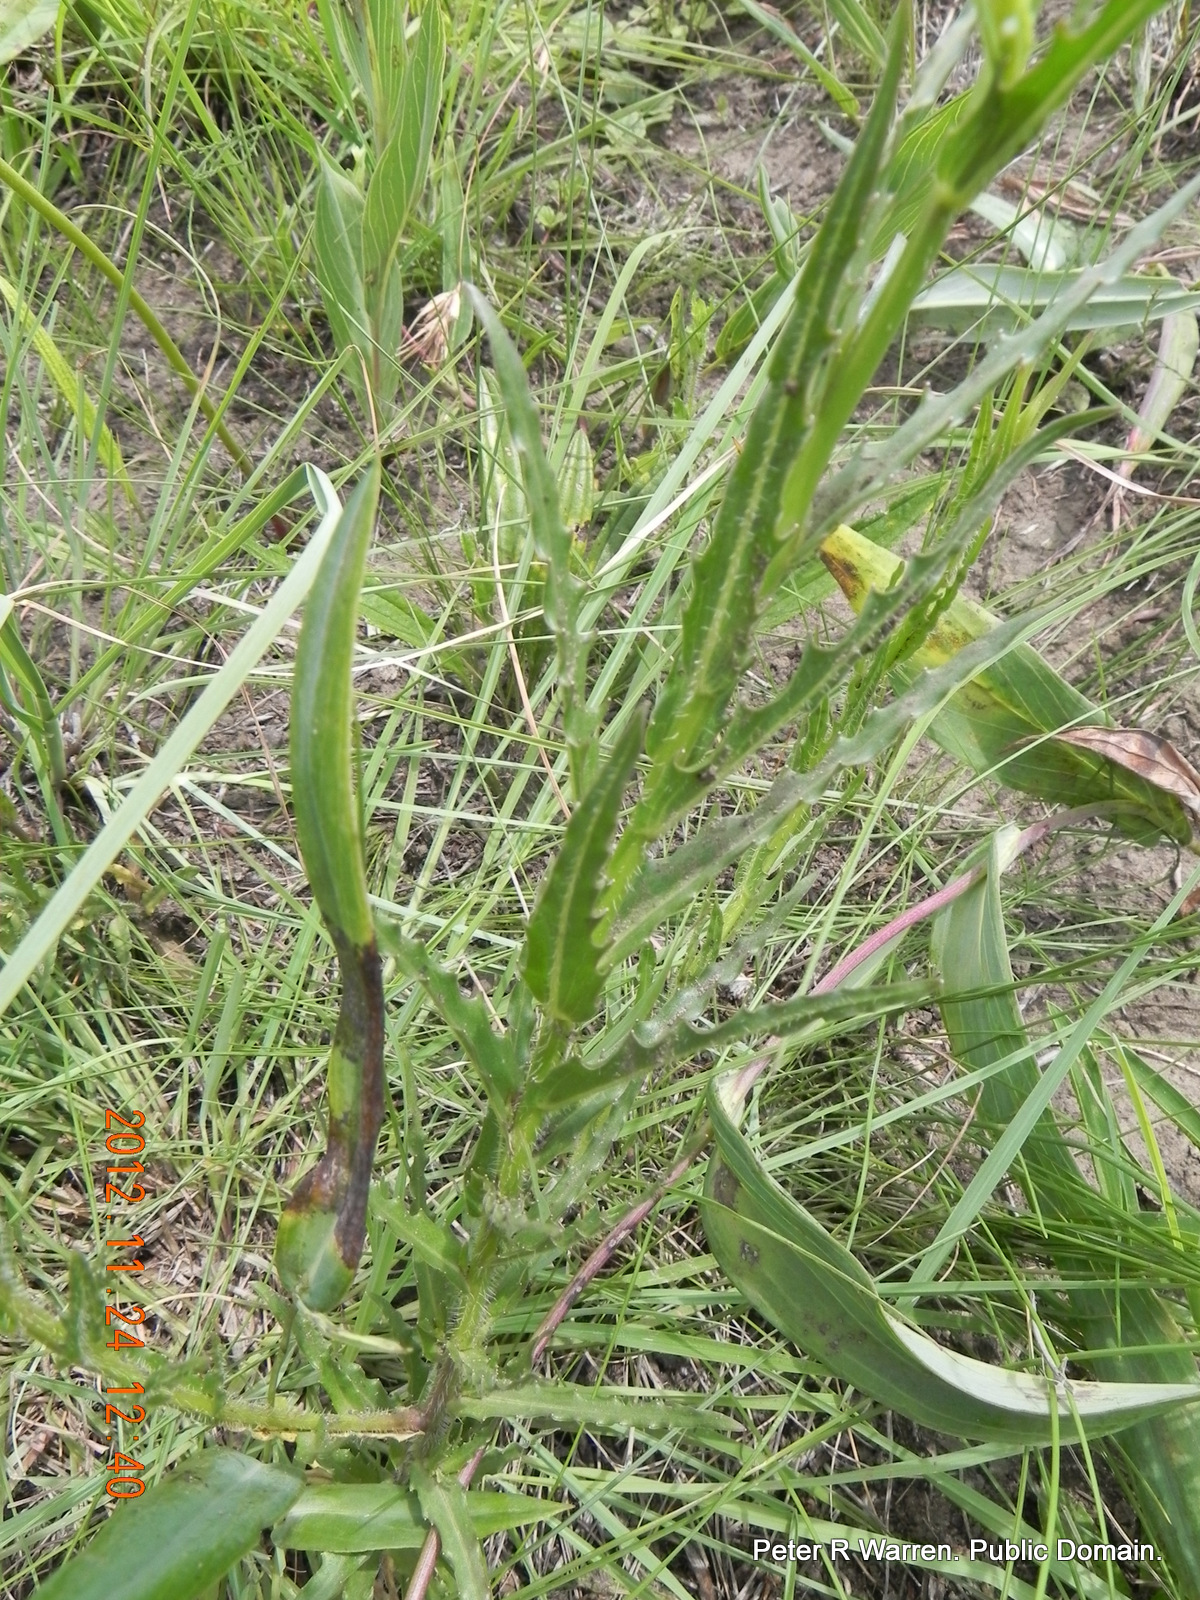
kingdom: Plantae
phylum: Tracheophyta
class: Magnoliopsida
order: Asterales
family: Campanulaceae
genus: Wahlenbergia
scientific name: Wahlenbergia krebsii
